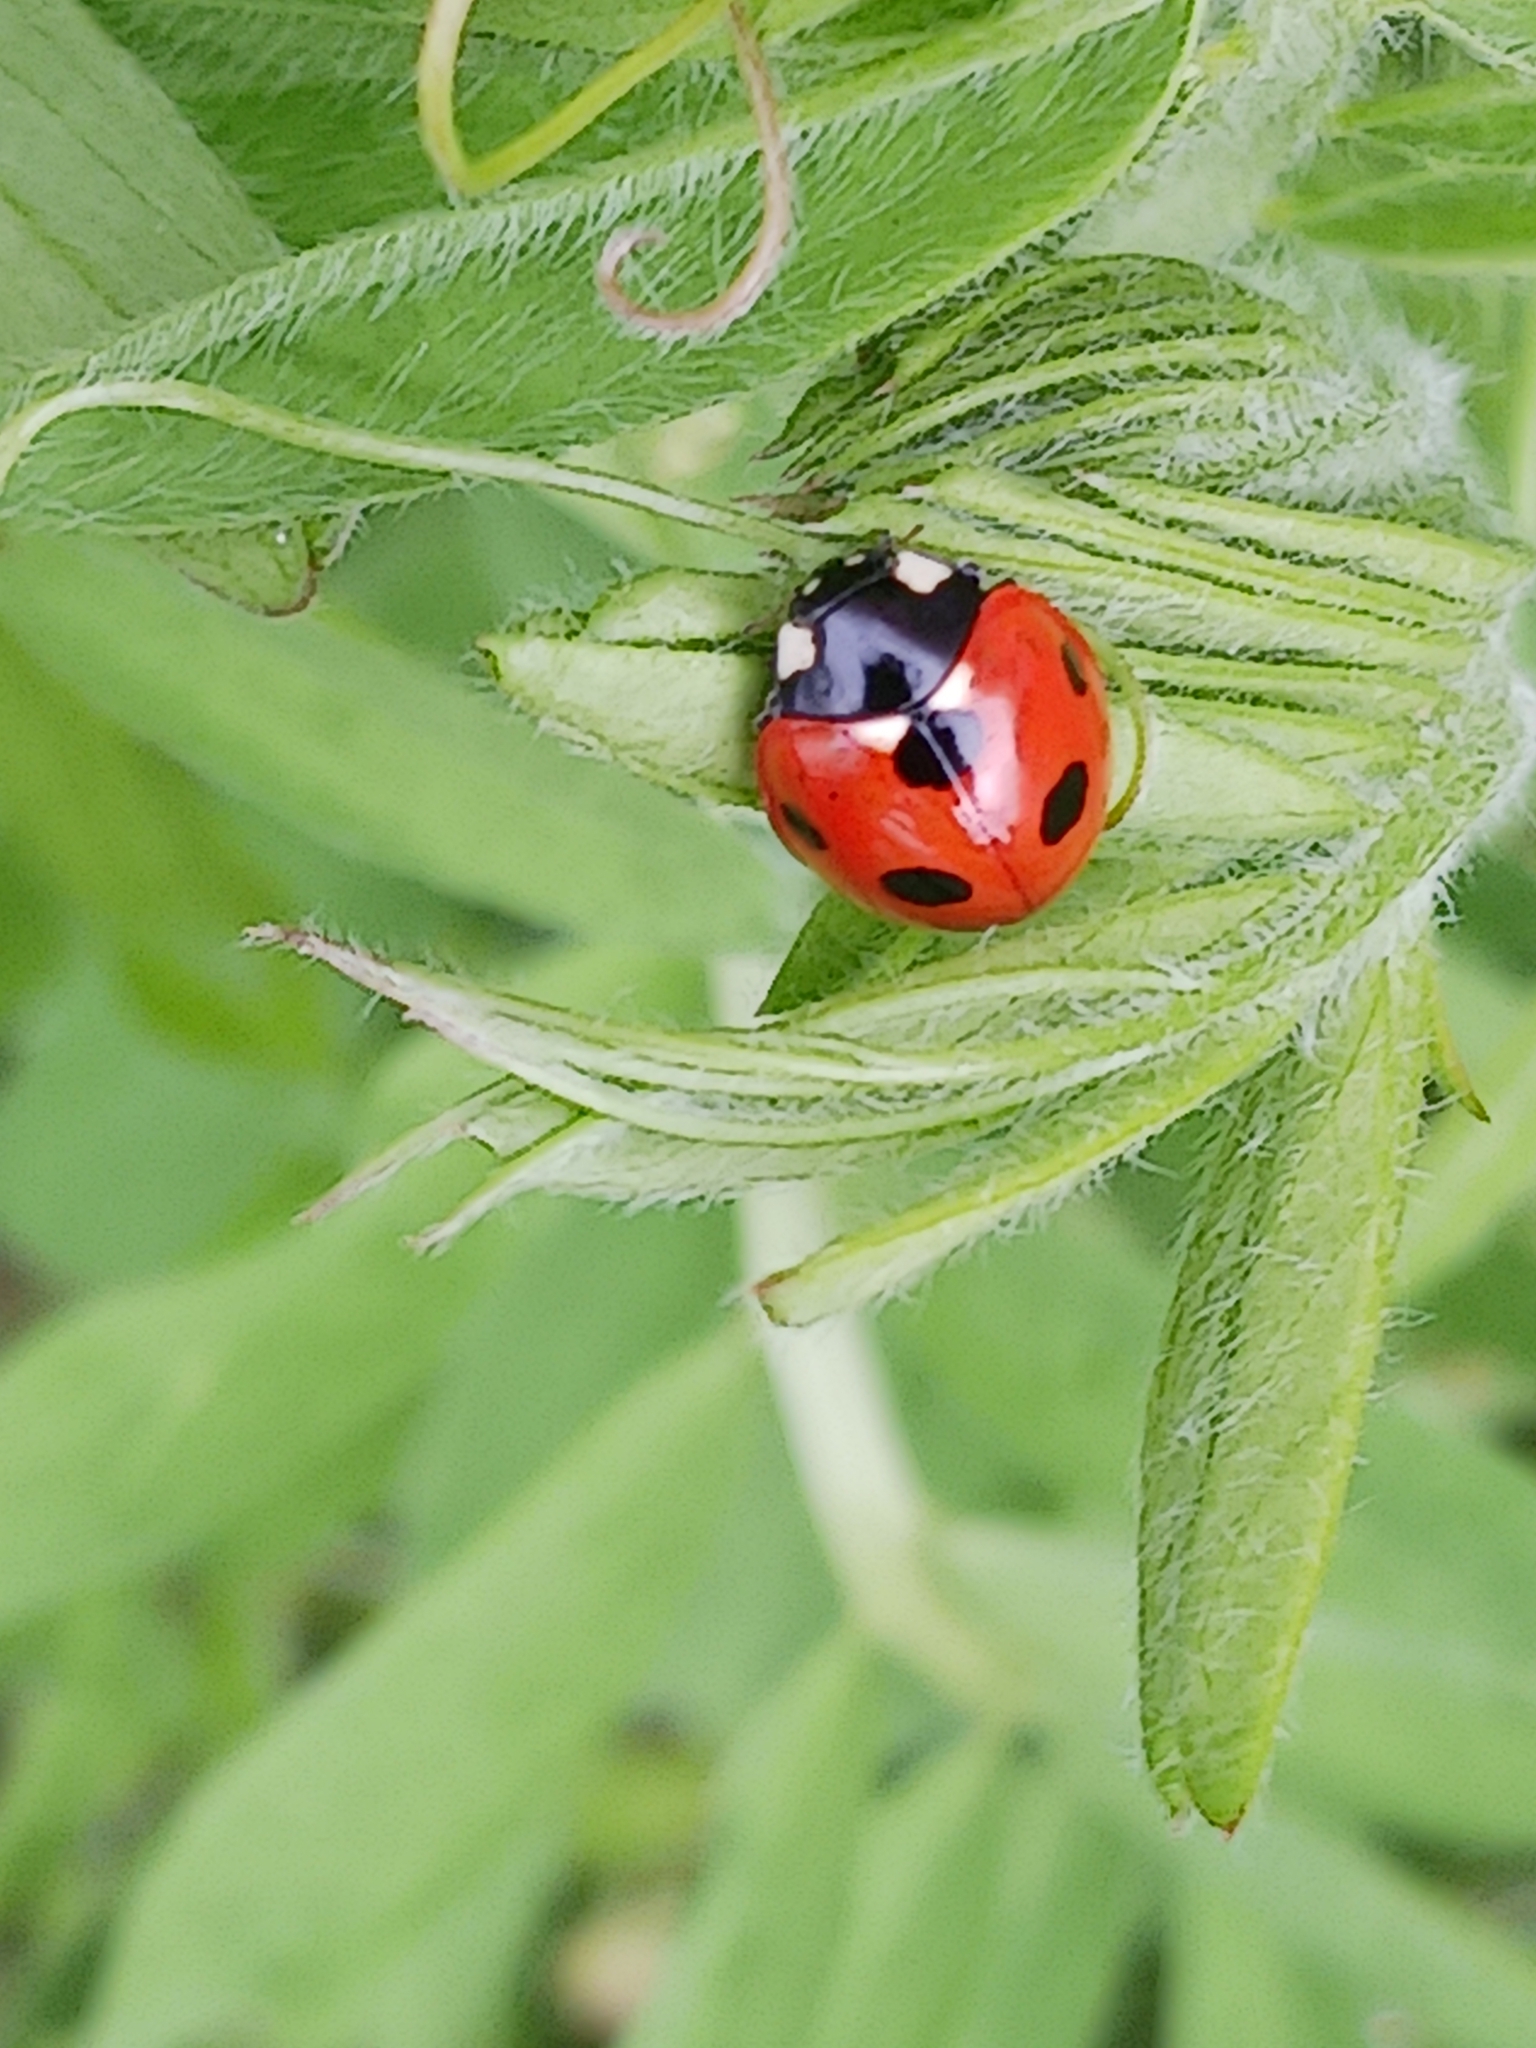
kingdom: Animalia
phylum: Arthropoda
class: Insecta
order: Coleoptera
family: Coccinellidae
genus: Coccinella
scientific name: Coccinella septempunctata
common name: Sevenspotted lady beetle
